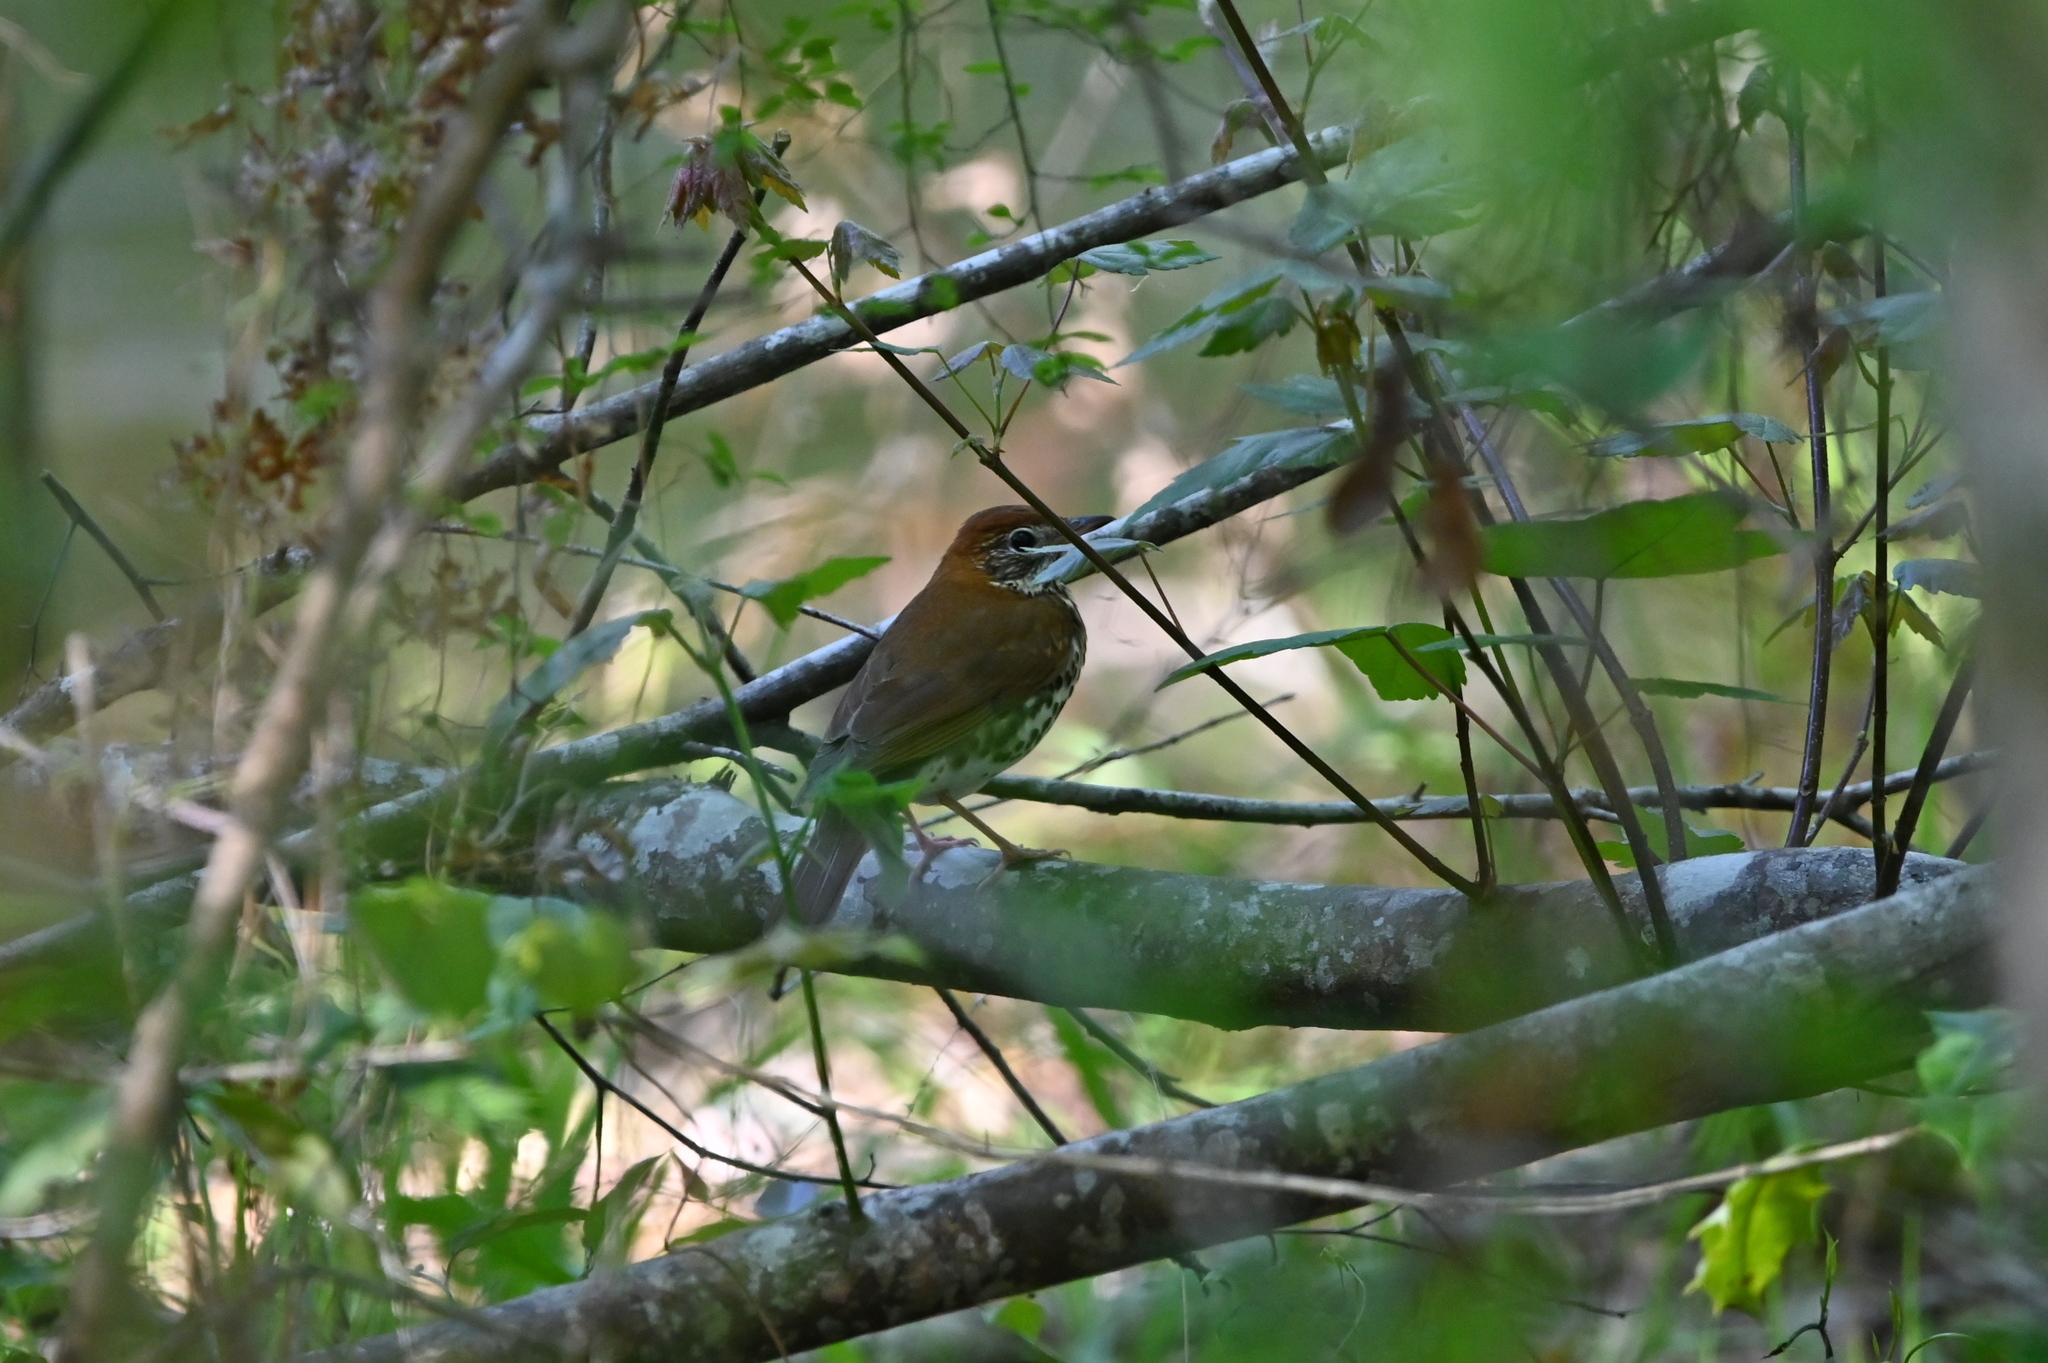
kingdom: Animalia
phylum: Chordata
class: Aves
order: Passeriformes
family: Turdidae
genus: Hylocichla
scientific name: Hylocichla mustelina
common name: Wood thrush
